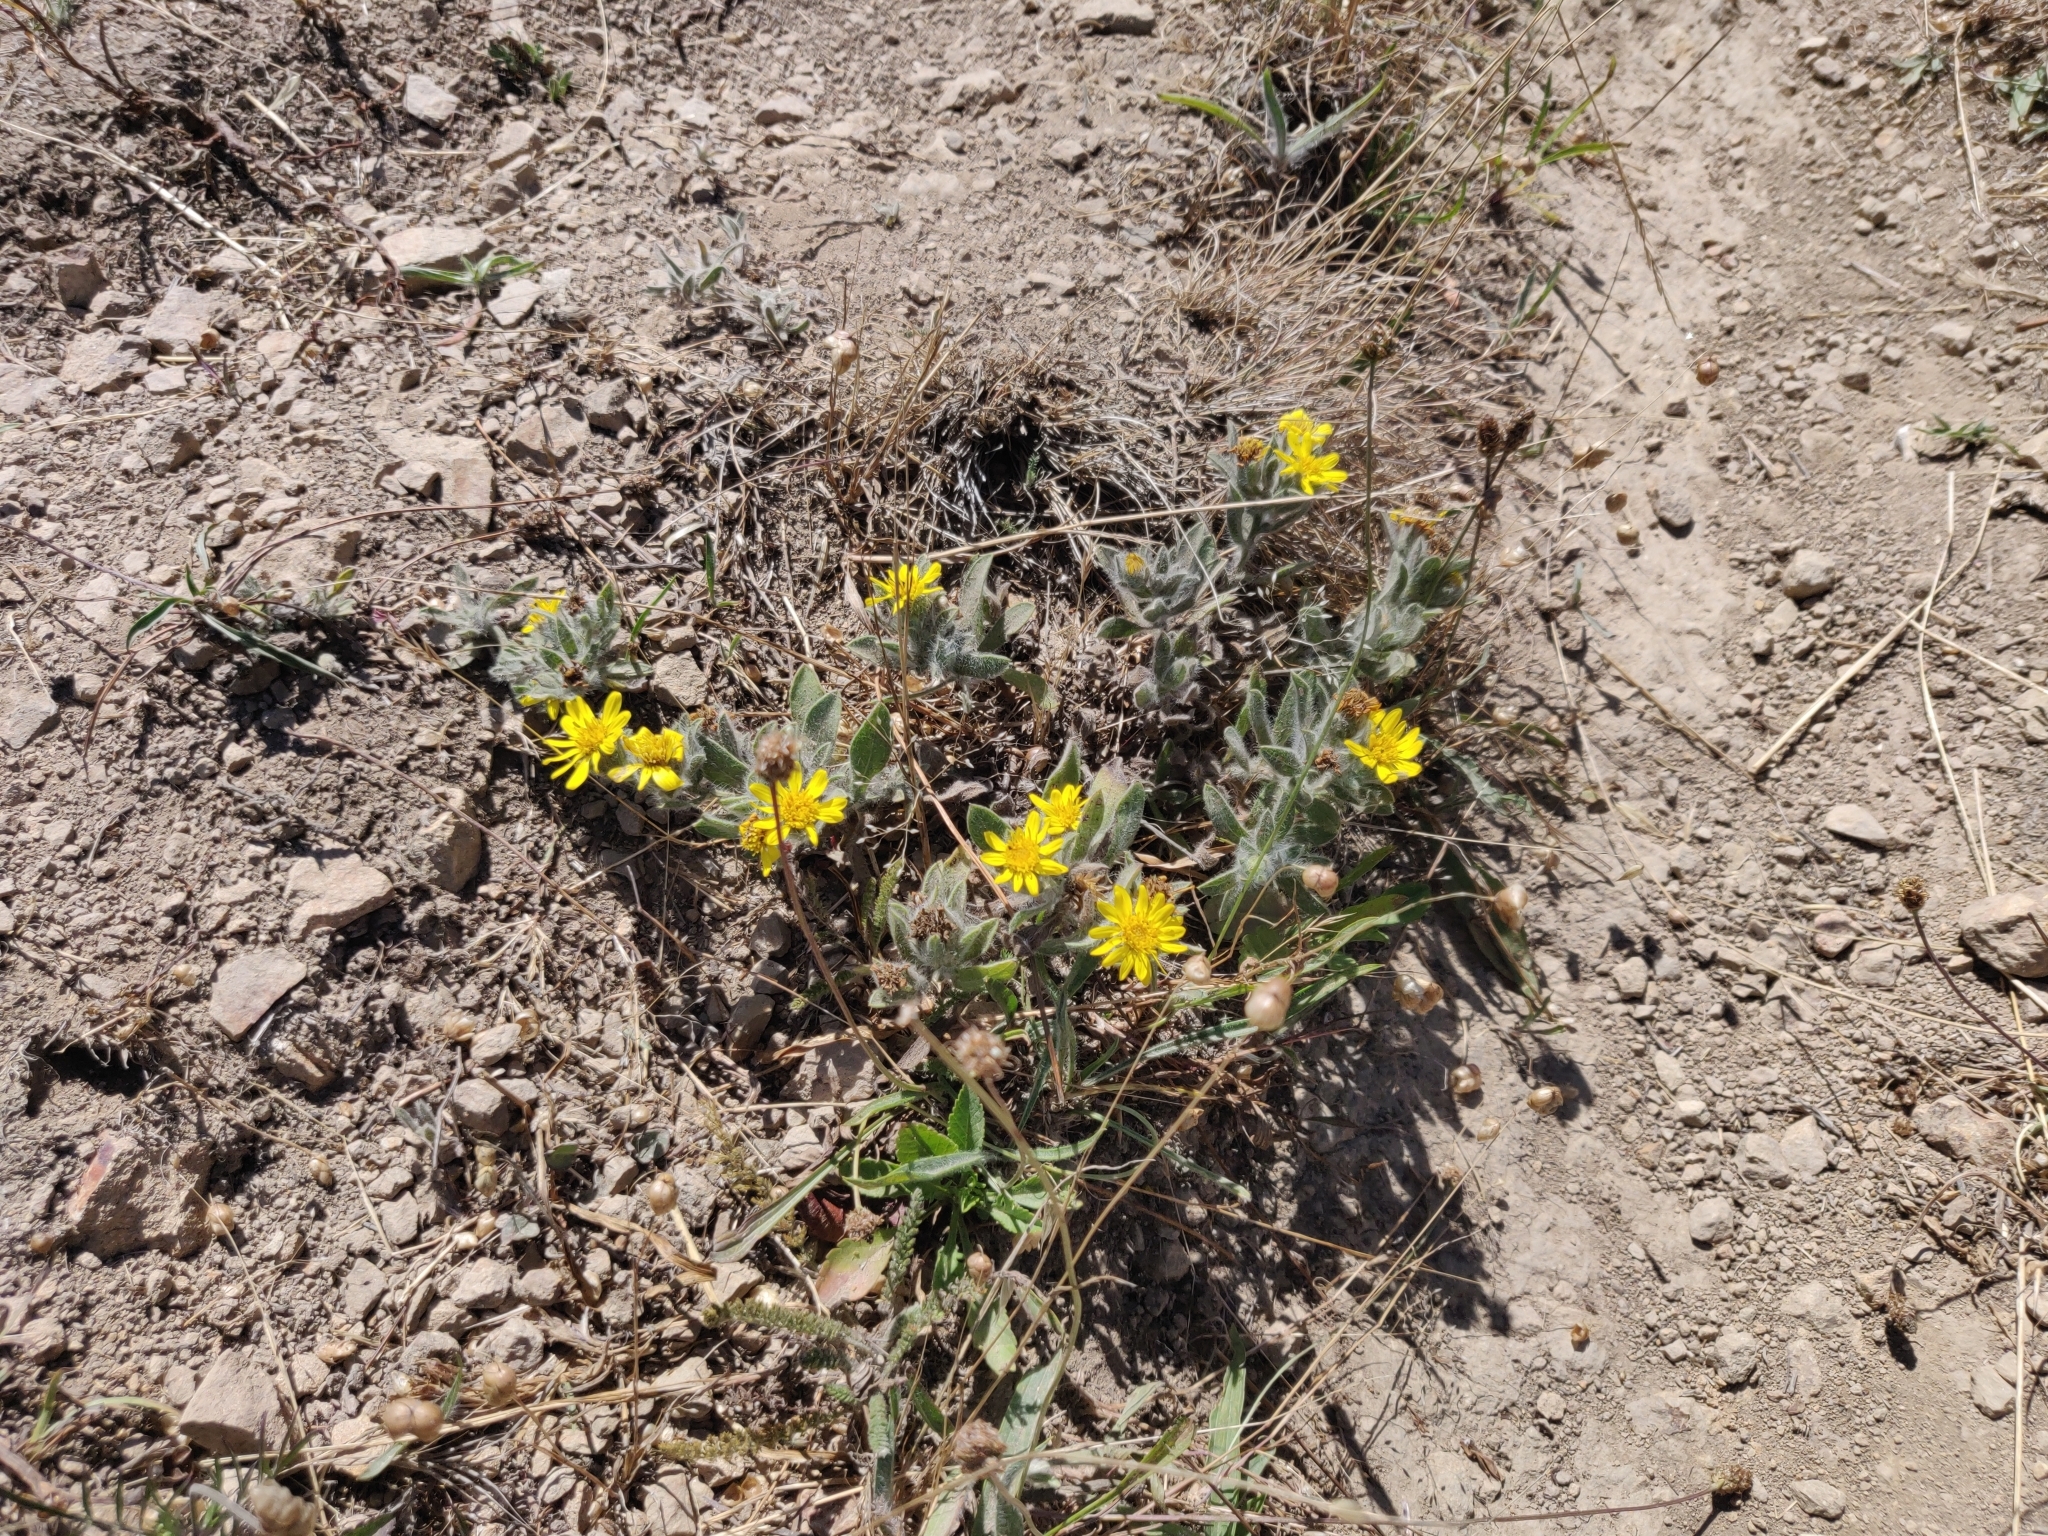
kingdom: Plantae
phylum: Tracheophyta
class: Magnoliopsida
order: Asterales
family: Asteraceae
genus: Heterotheca
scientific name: Heterotheca sessiliflora
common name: Sessile-flower golden-aster
